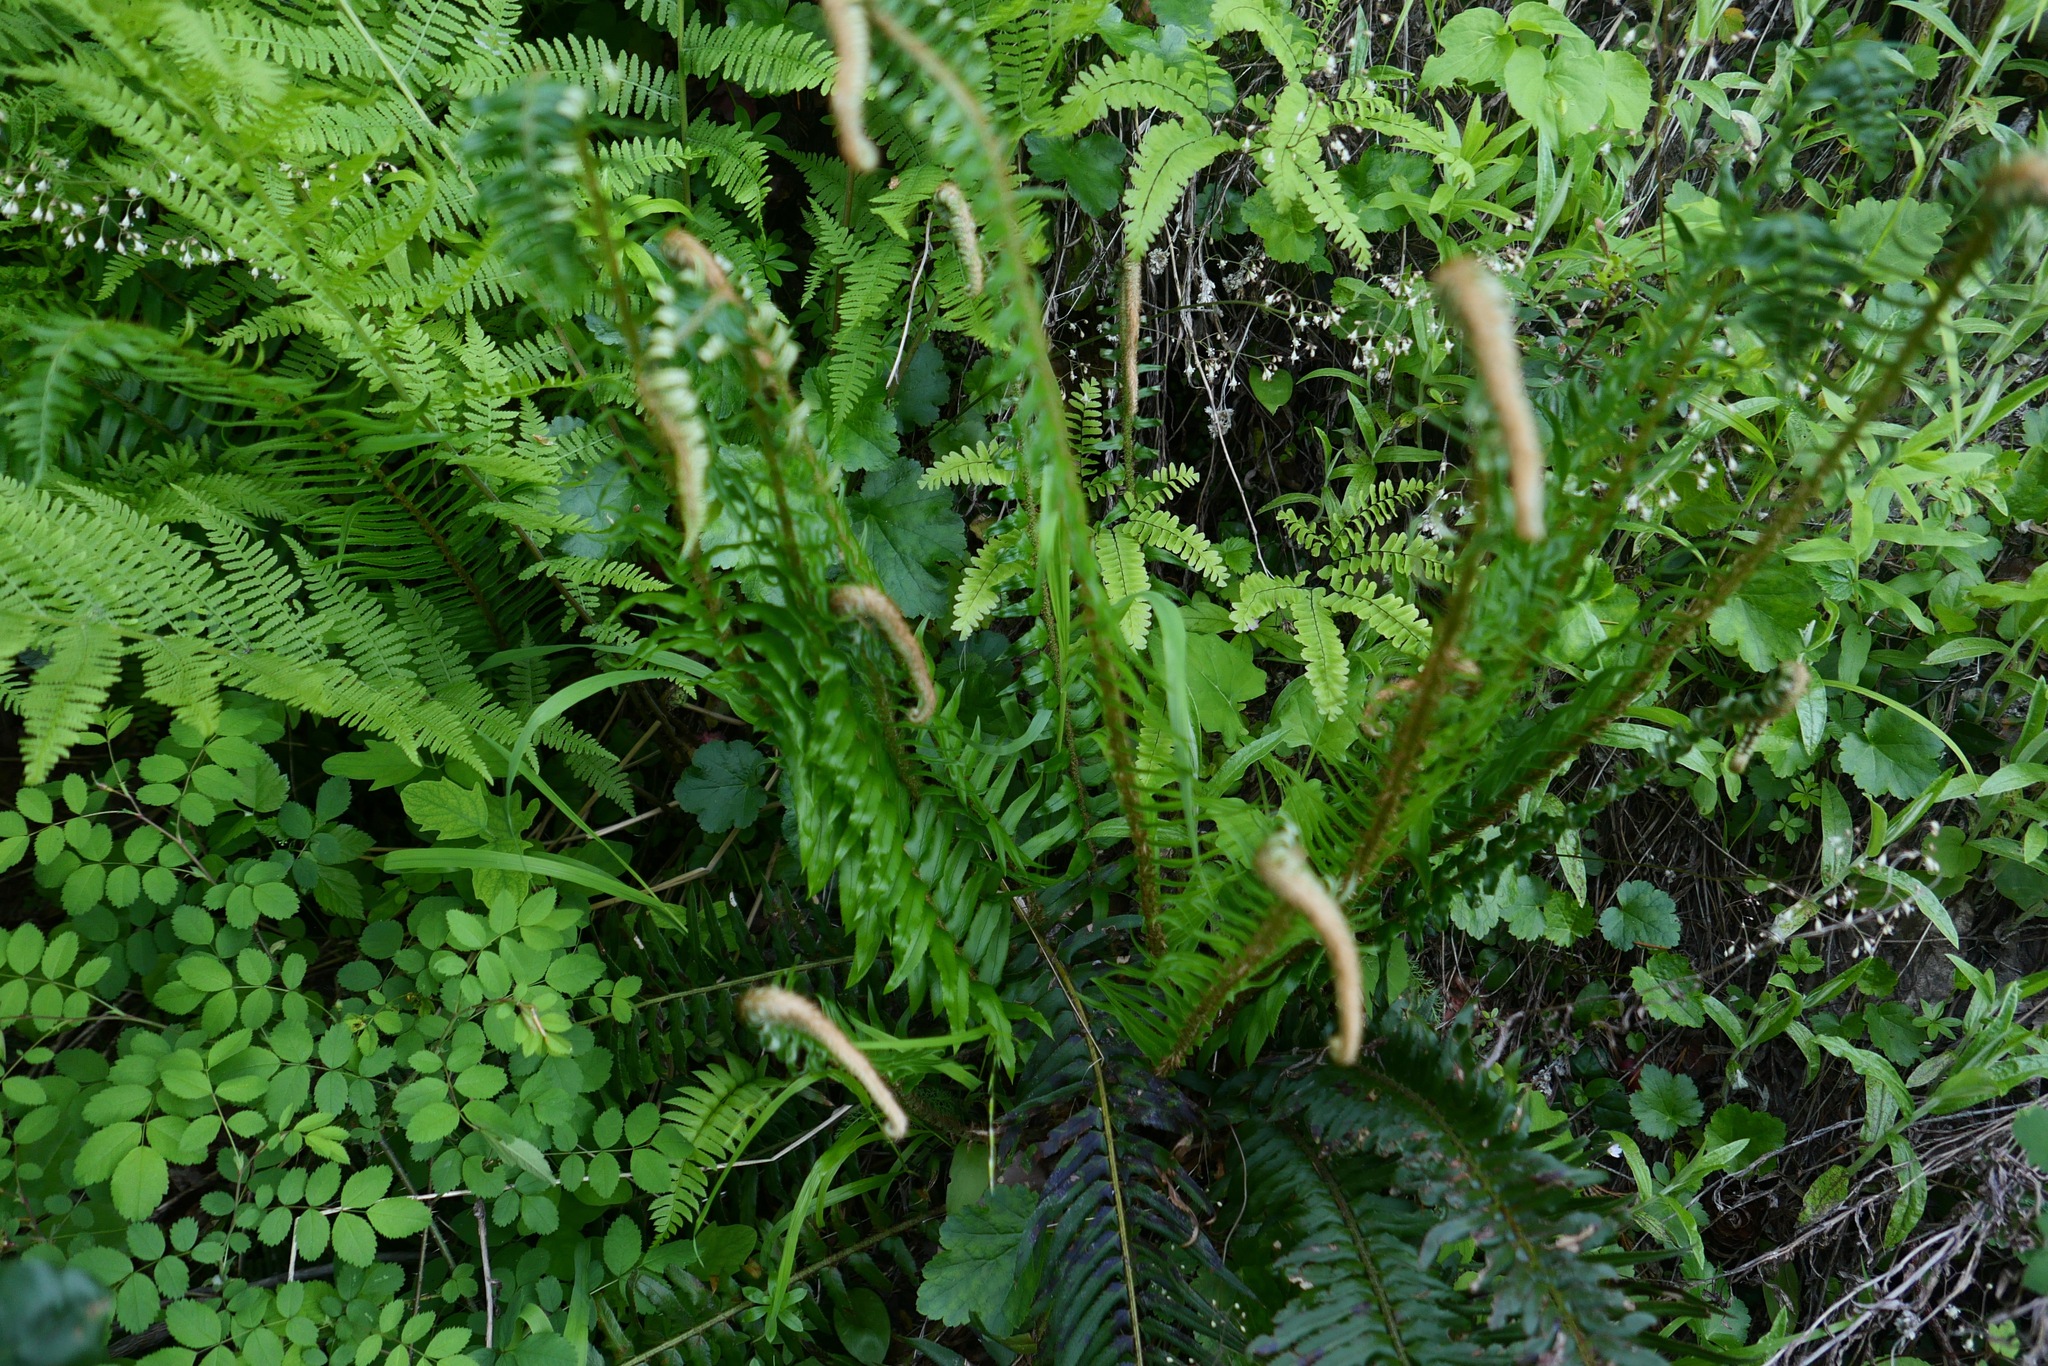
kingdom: Plantae
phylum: Tracheophyta
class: Polypodiopsida
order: Polypodiales
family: Dryopteridaceae
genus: Polystichum
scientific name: Polystichum munitum
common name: Western sword-fern
